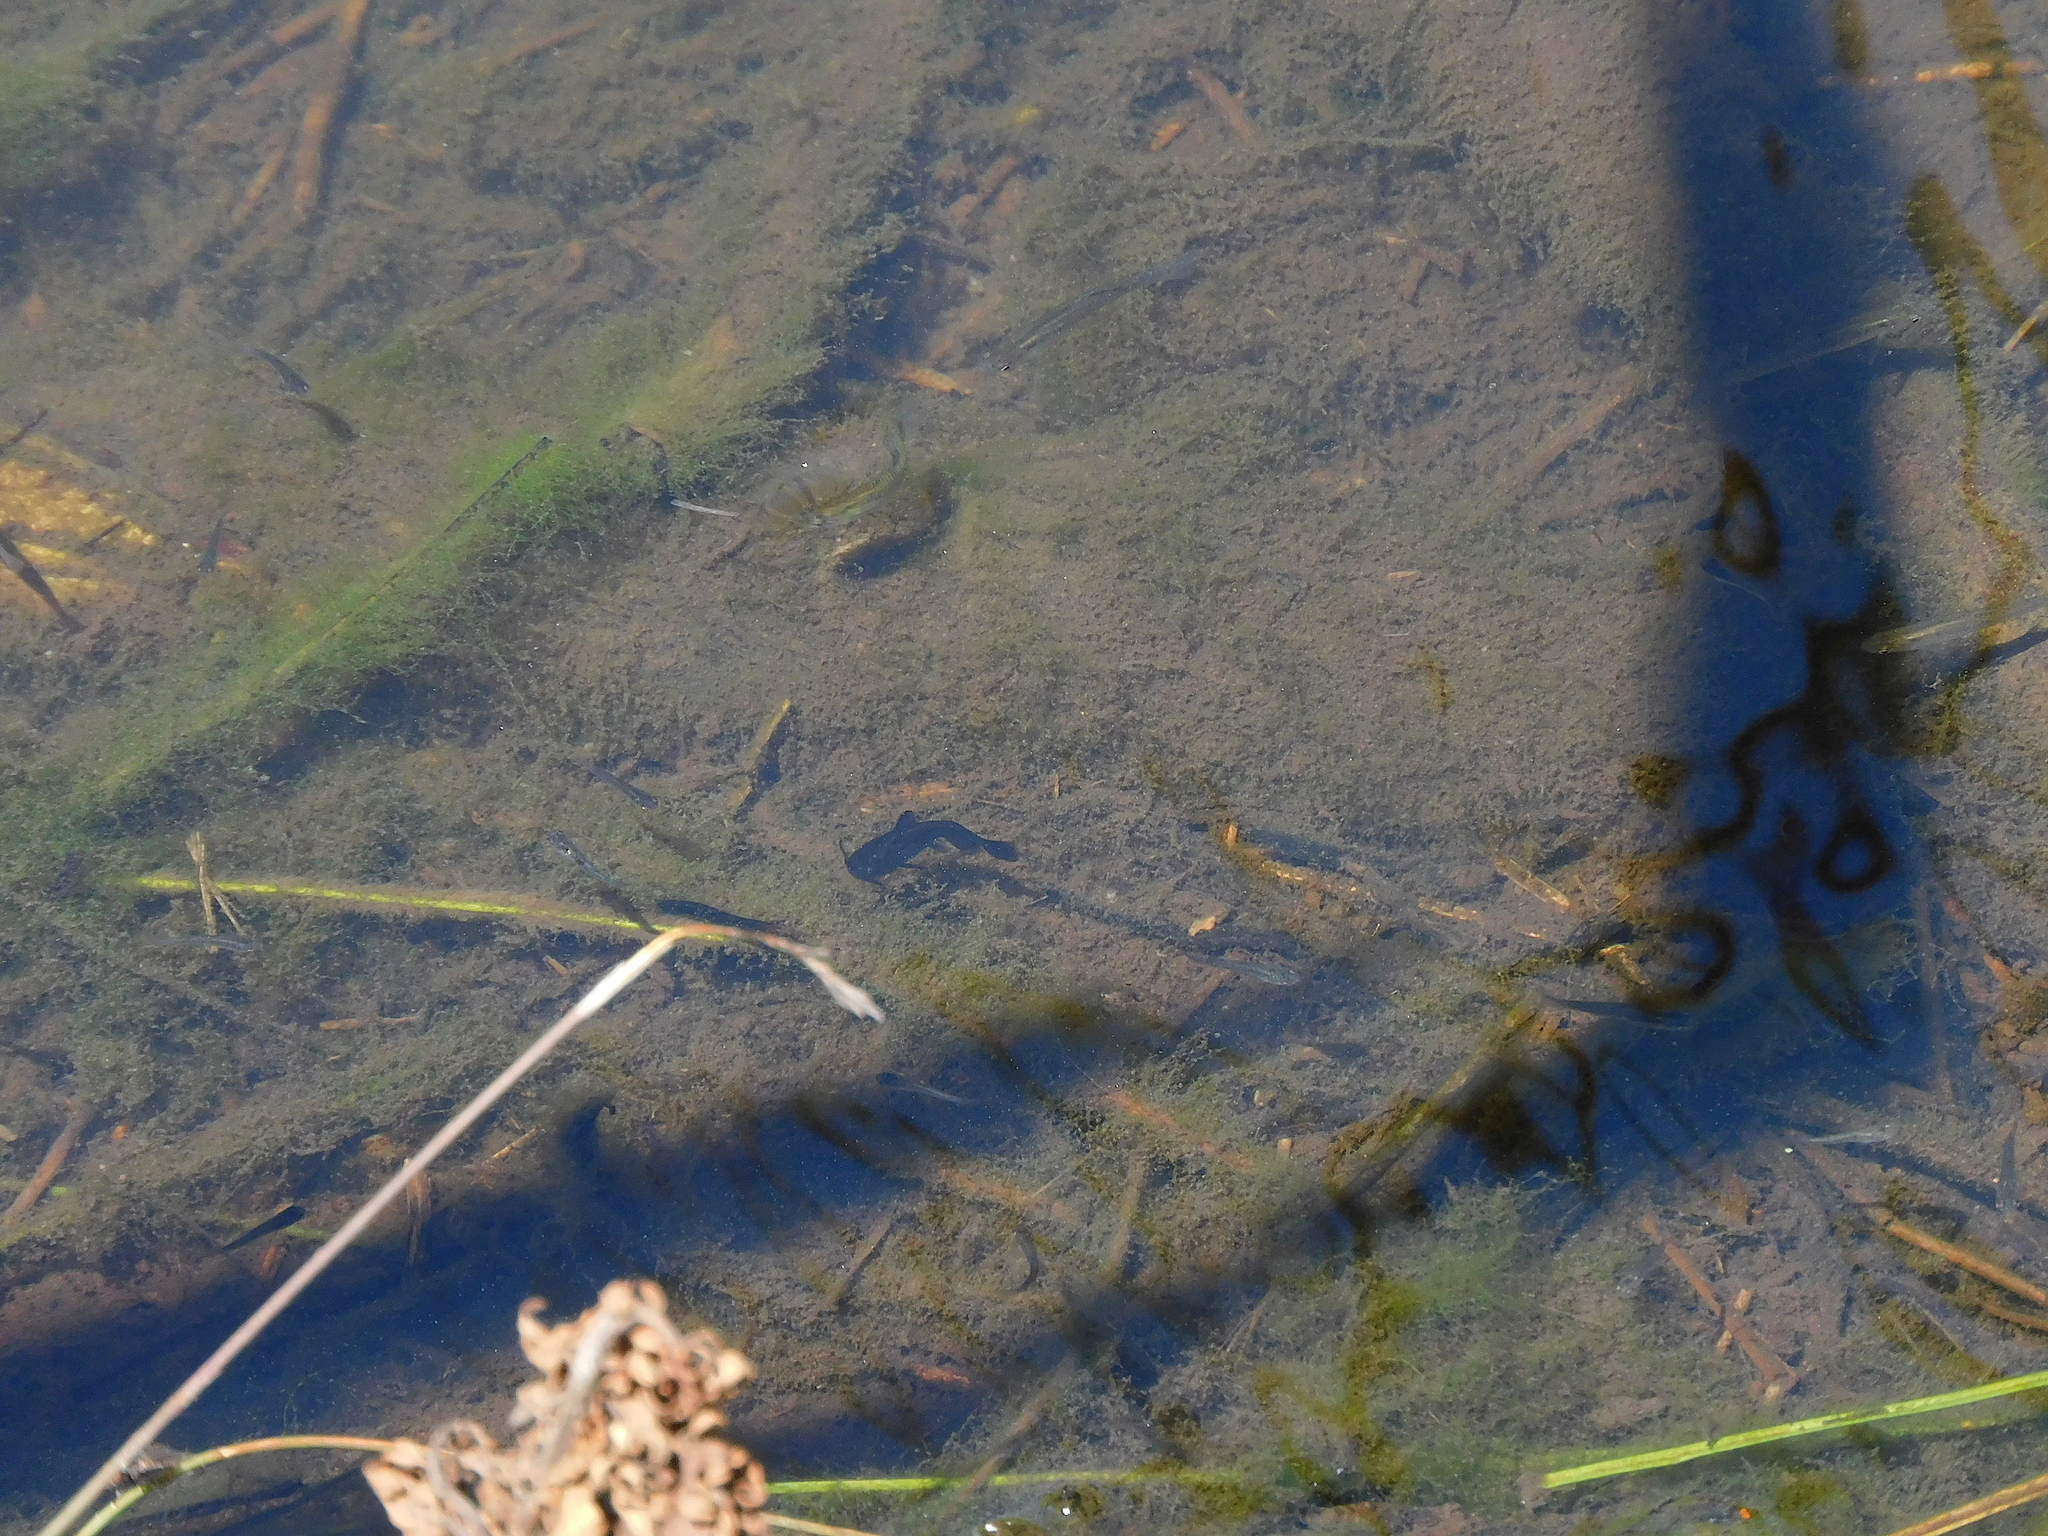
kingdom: Animalia
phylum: Chordata
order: Cyprinodontiformes
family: Poeciliidae
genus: Gambusia
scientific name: Gambusia affinis
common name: Mosquitofish
